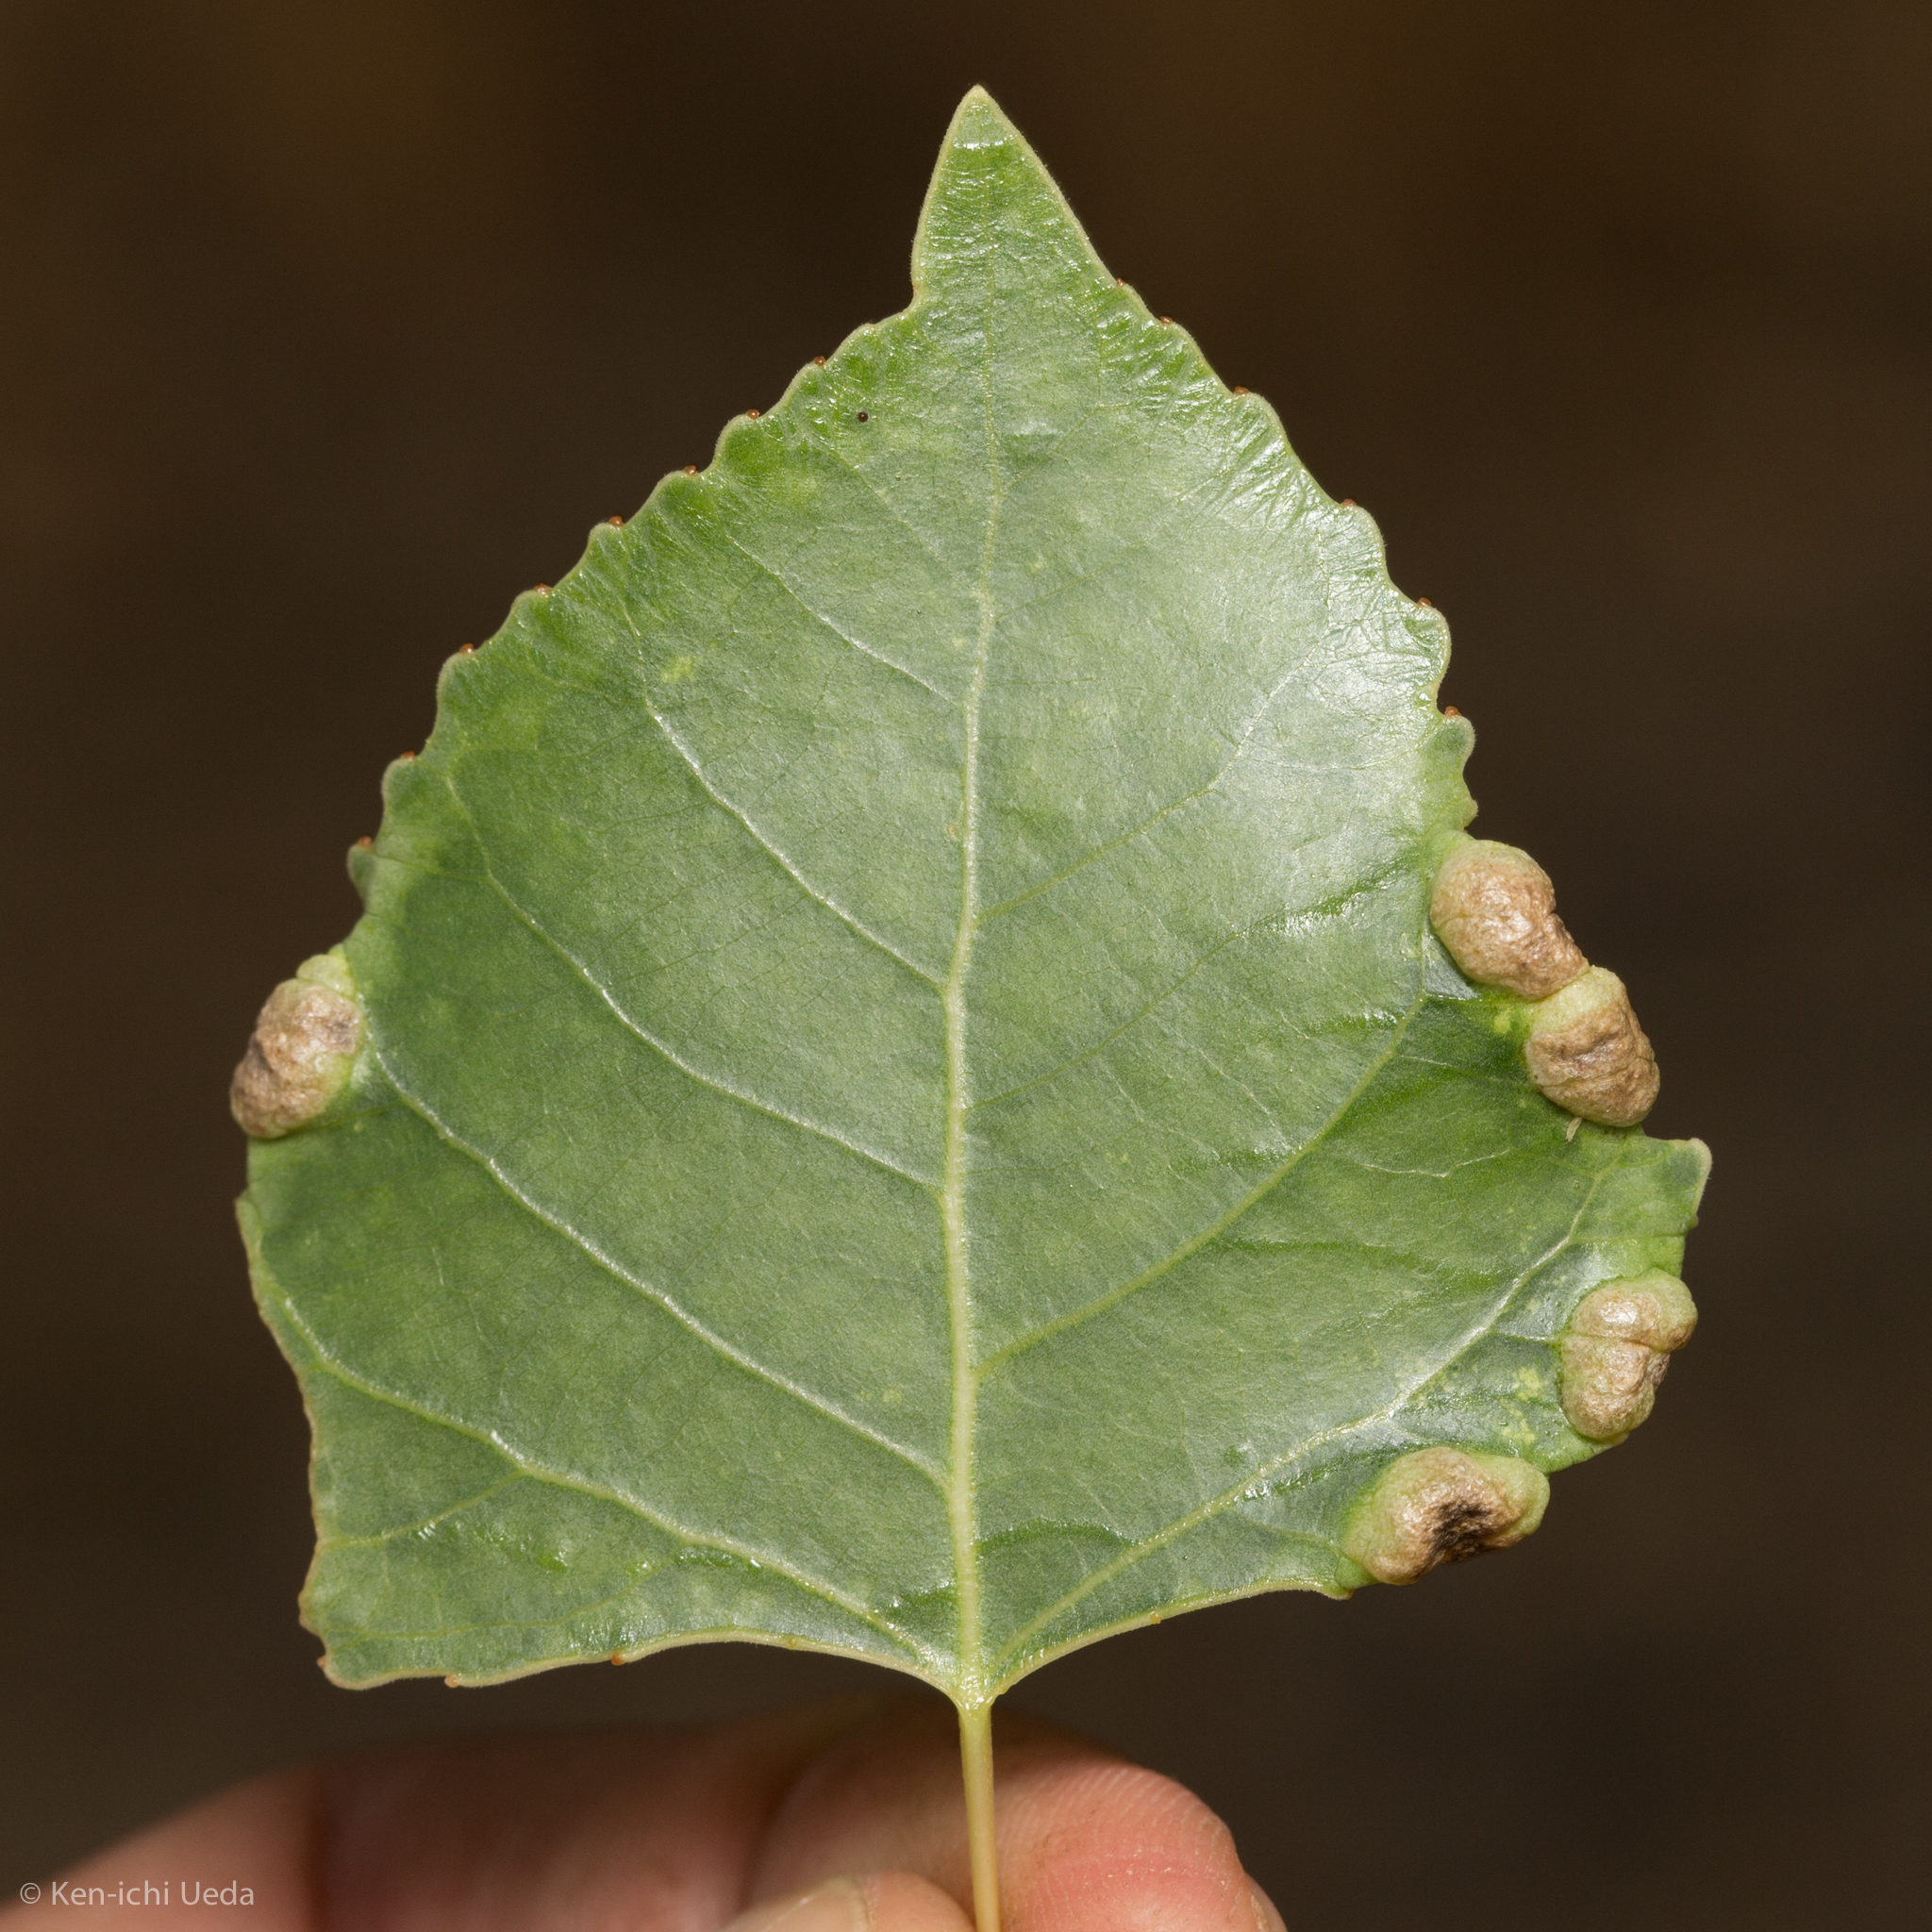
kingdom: Animalia
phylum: Arthropoda
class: Insecta
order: Hemiptera
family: Aphididae
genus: Thecabius
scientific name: Thecabius populimonilis
